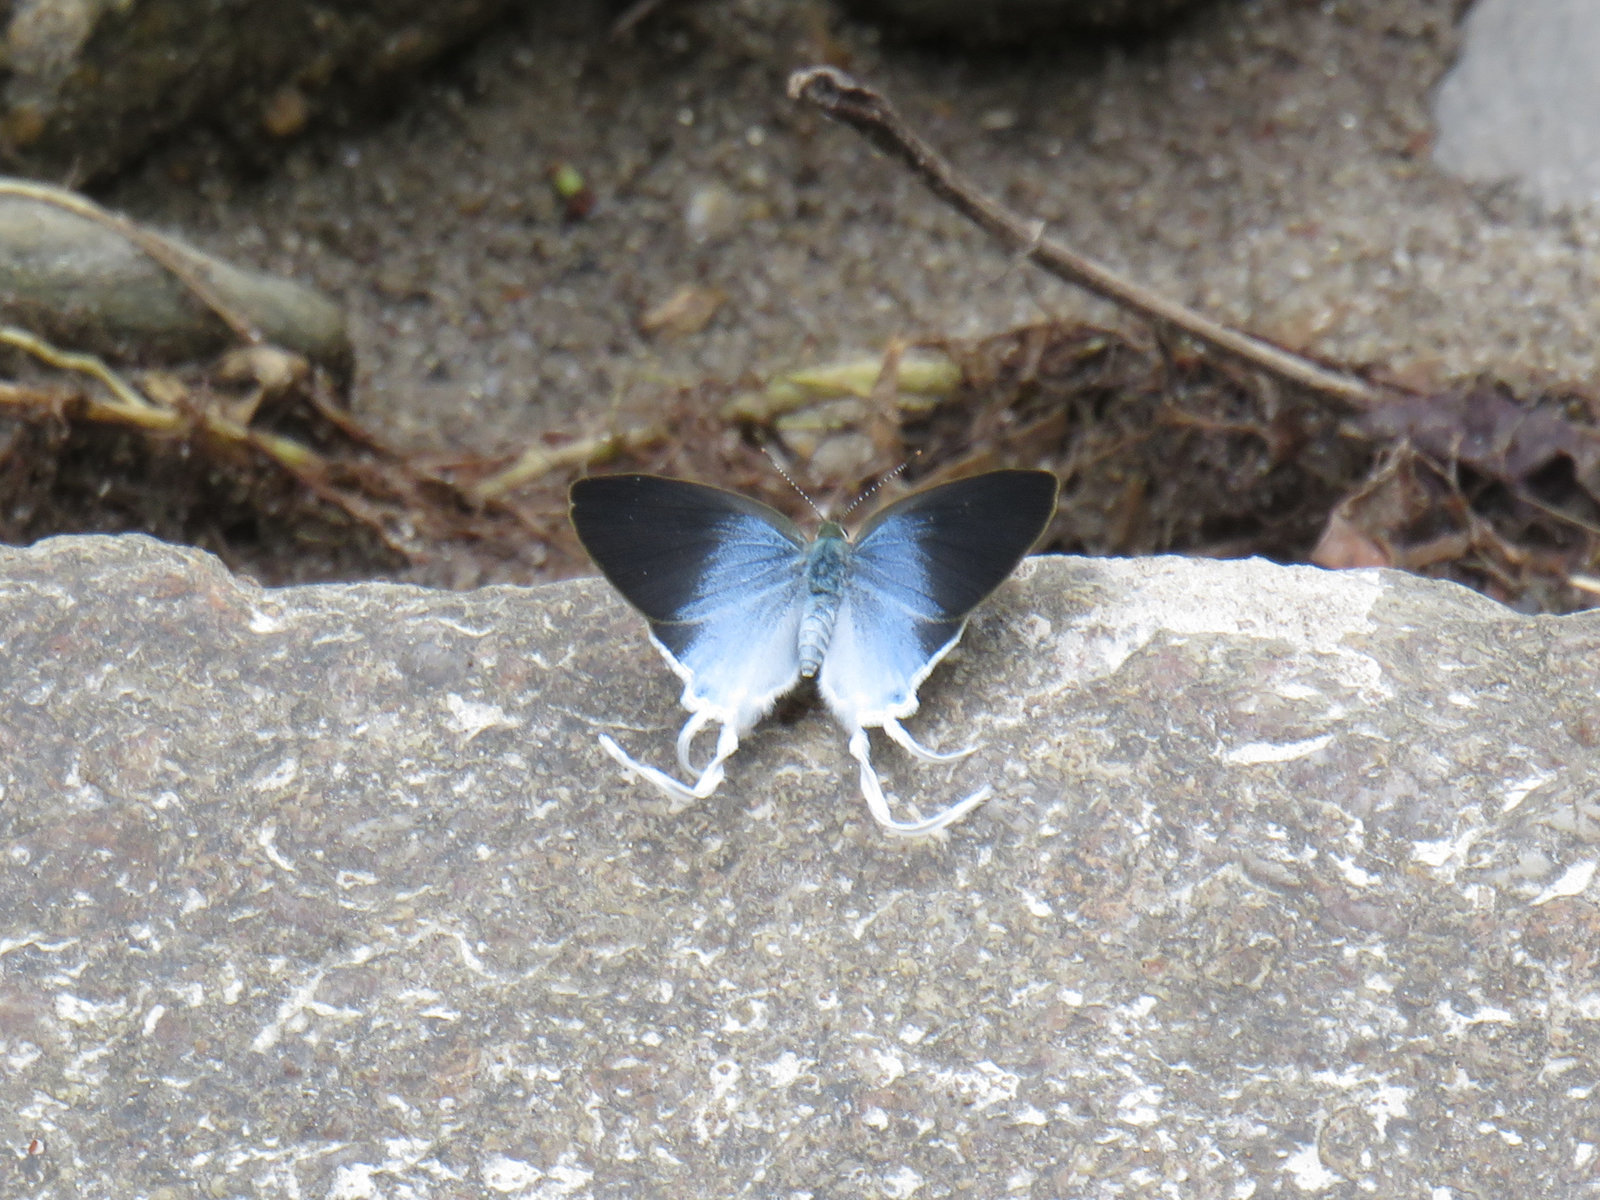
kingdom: Animalia
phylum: Arthropoda
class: Insecta
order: Lepidoptera
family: Lycaenidae
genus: Zeltus
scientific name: Zeltus amasa
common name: Fluffy tit
